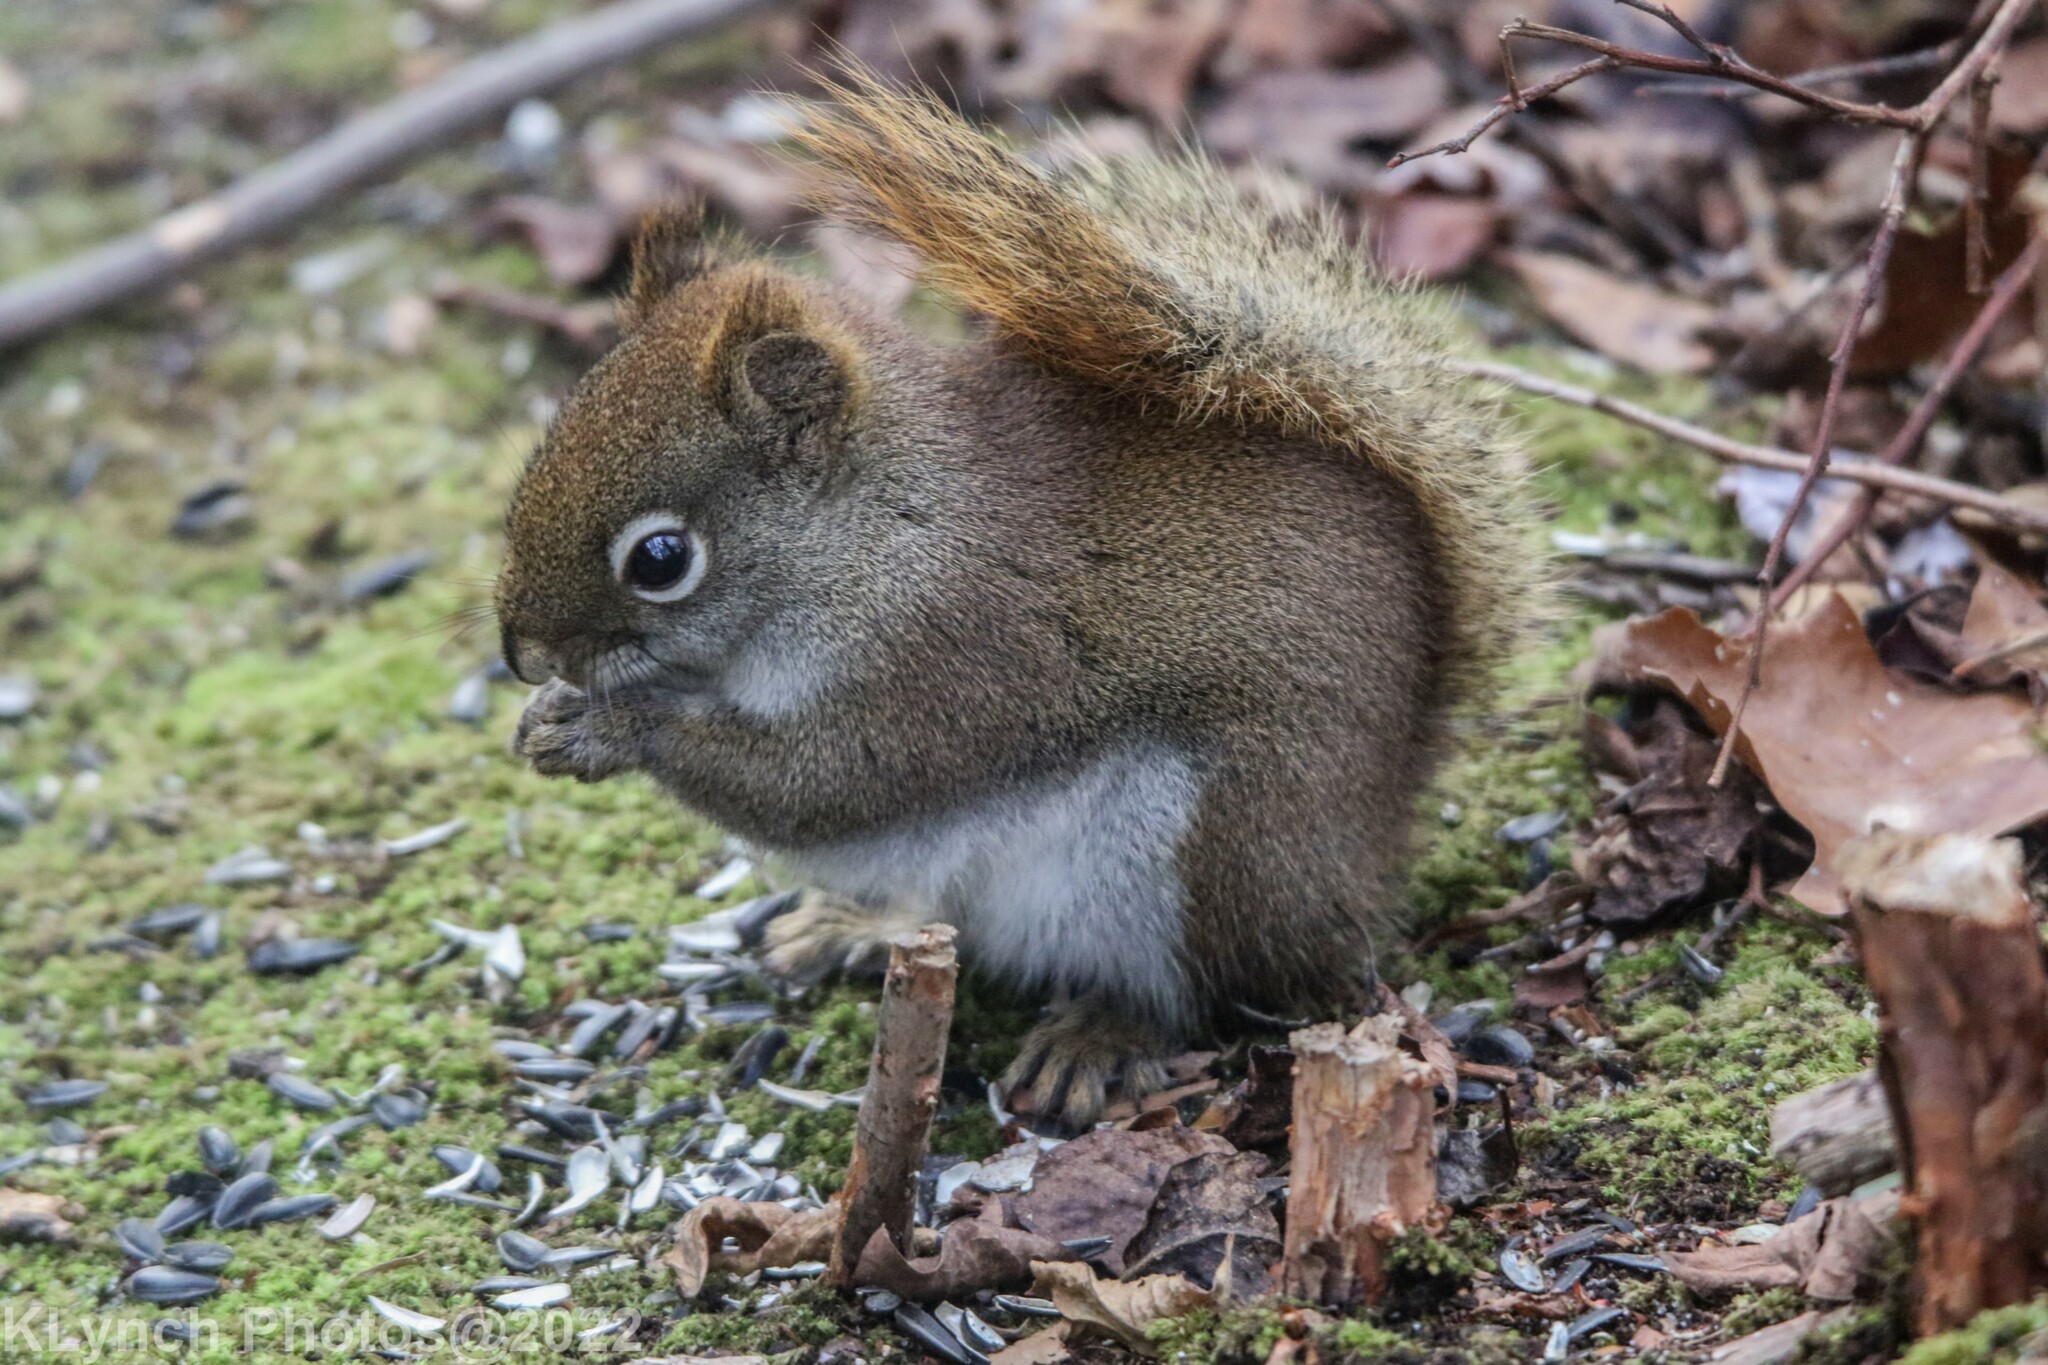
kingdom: Animalia
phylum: Chordata
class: Mammalia
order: Rodentia
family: Sciuridae
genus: Tamiasciurus
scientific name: Tamiasciurus hudsonicus
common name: Red squirrel
